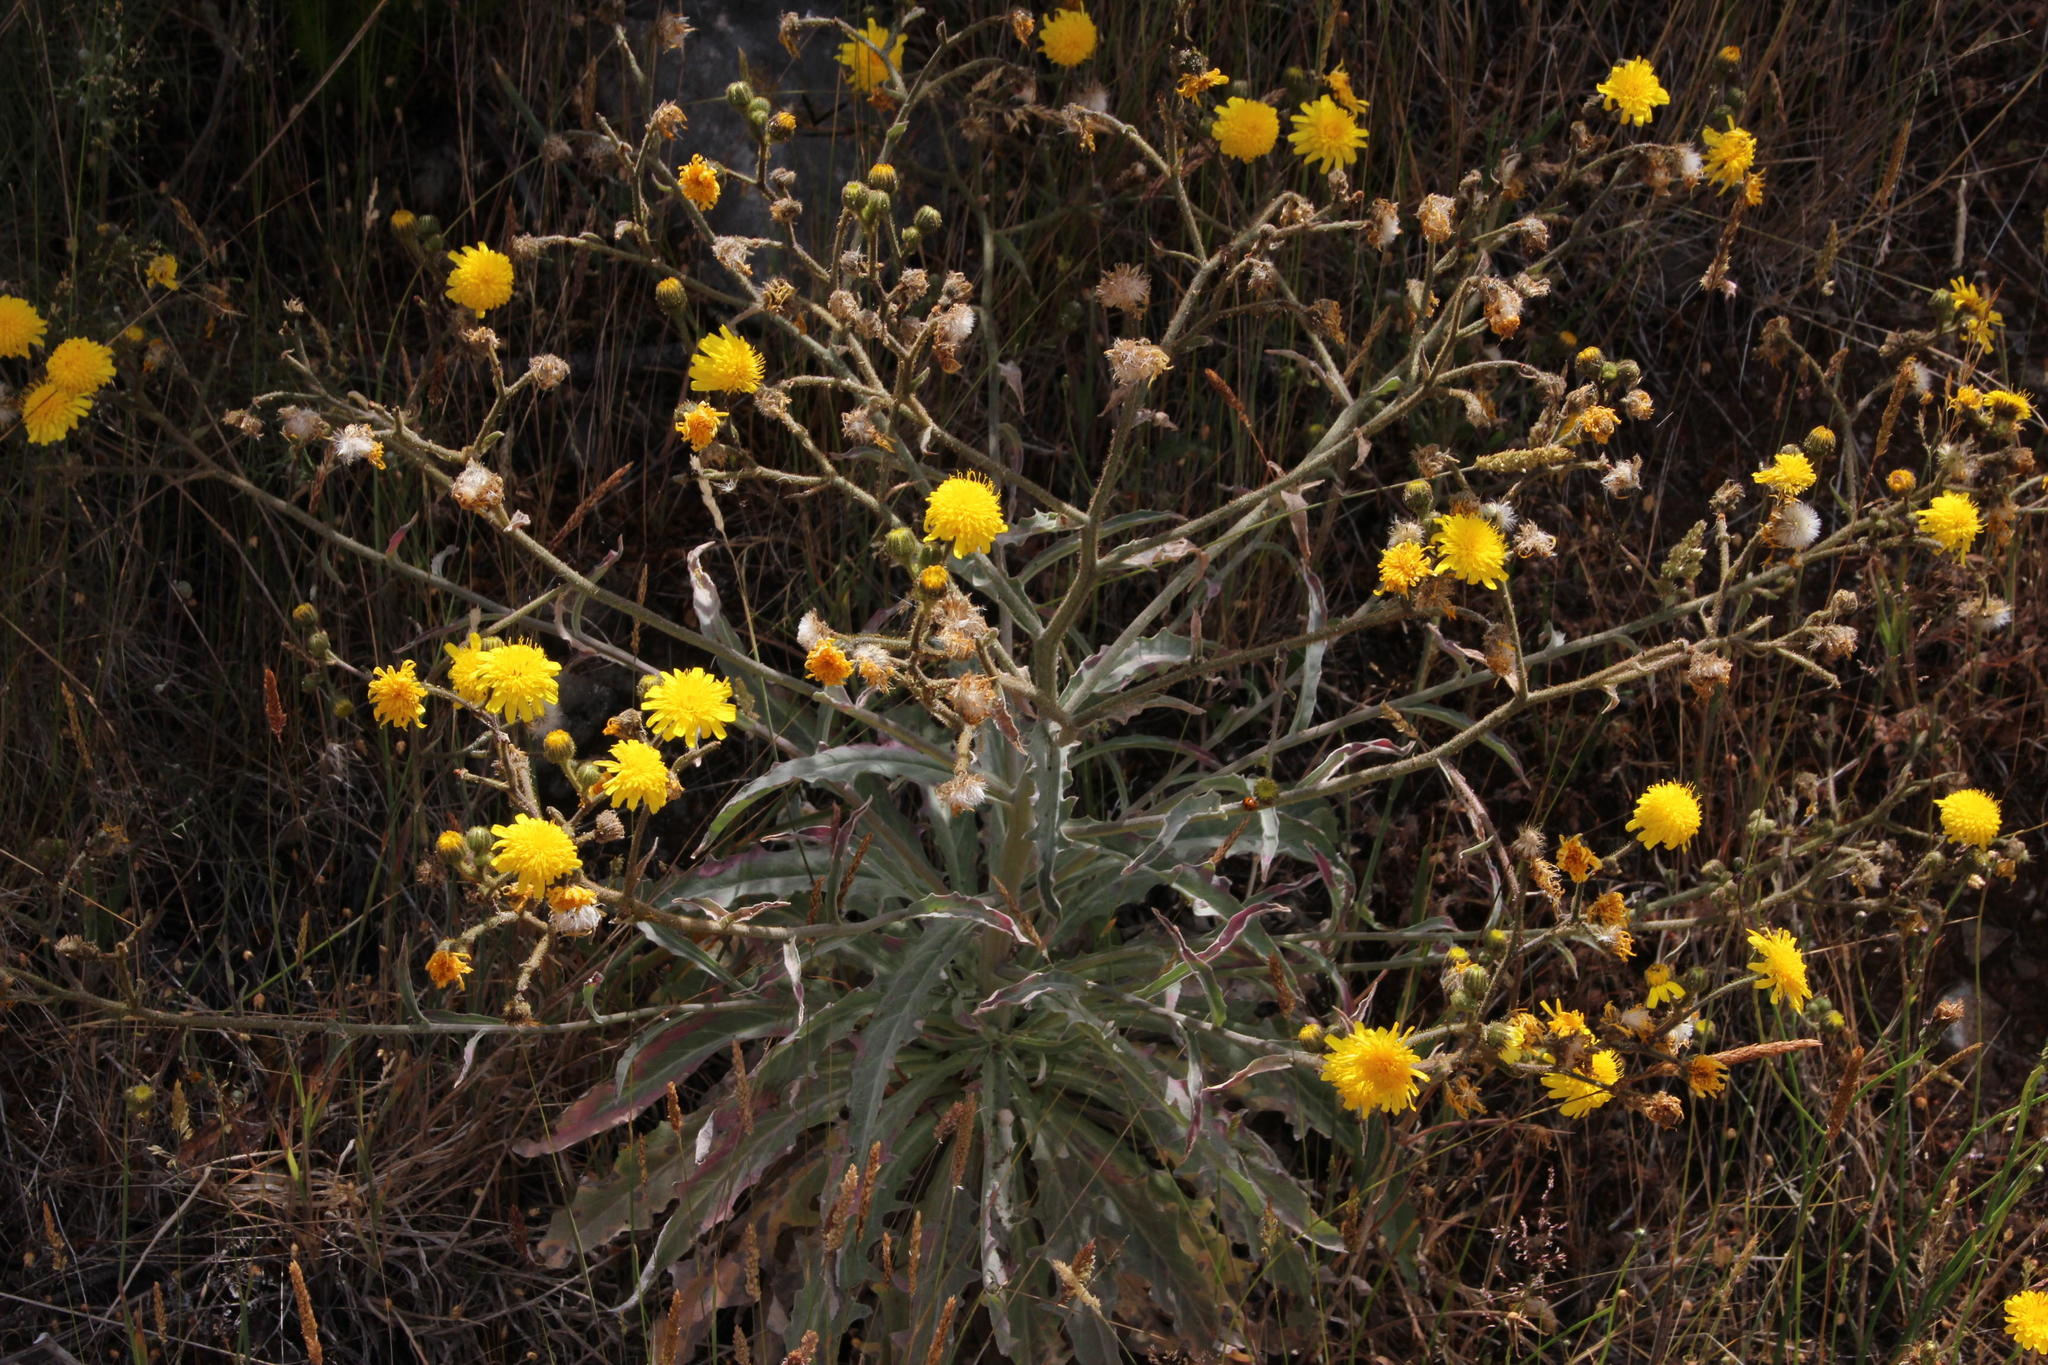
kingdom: Plantae
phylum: Tracheophyta
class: Magnoliopsida
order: Asterales
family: Asteraceae
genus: Andryala
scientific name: Andryala glandulosa
